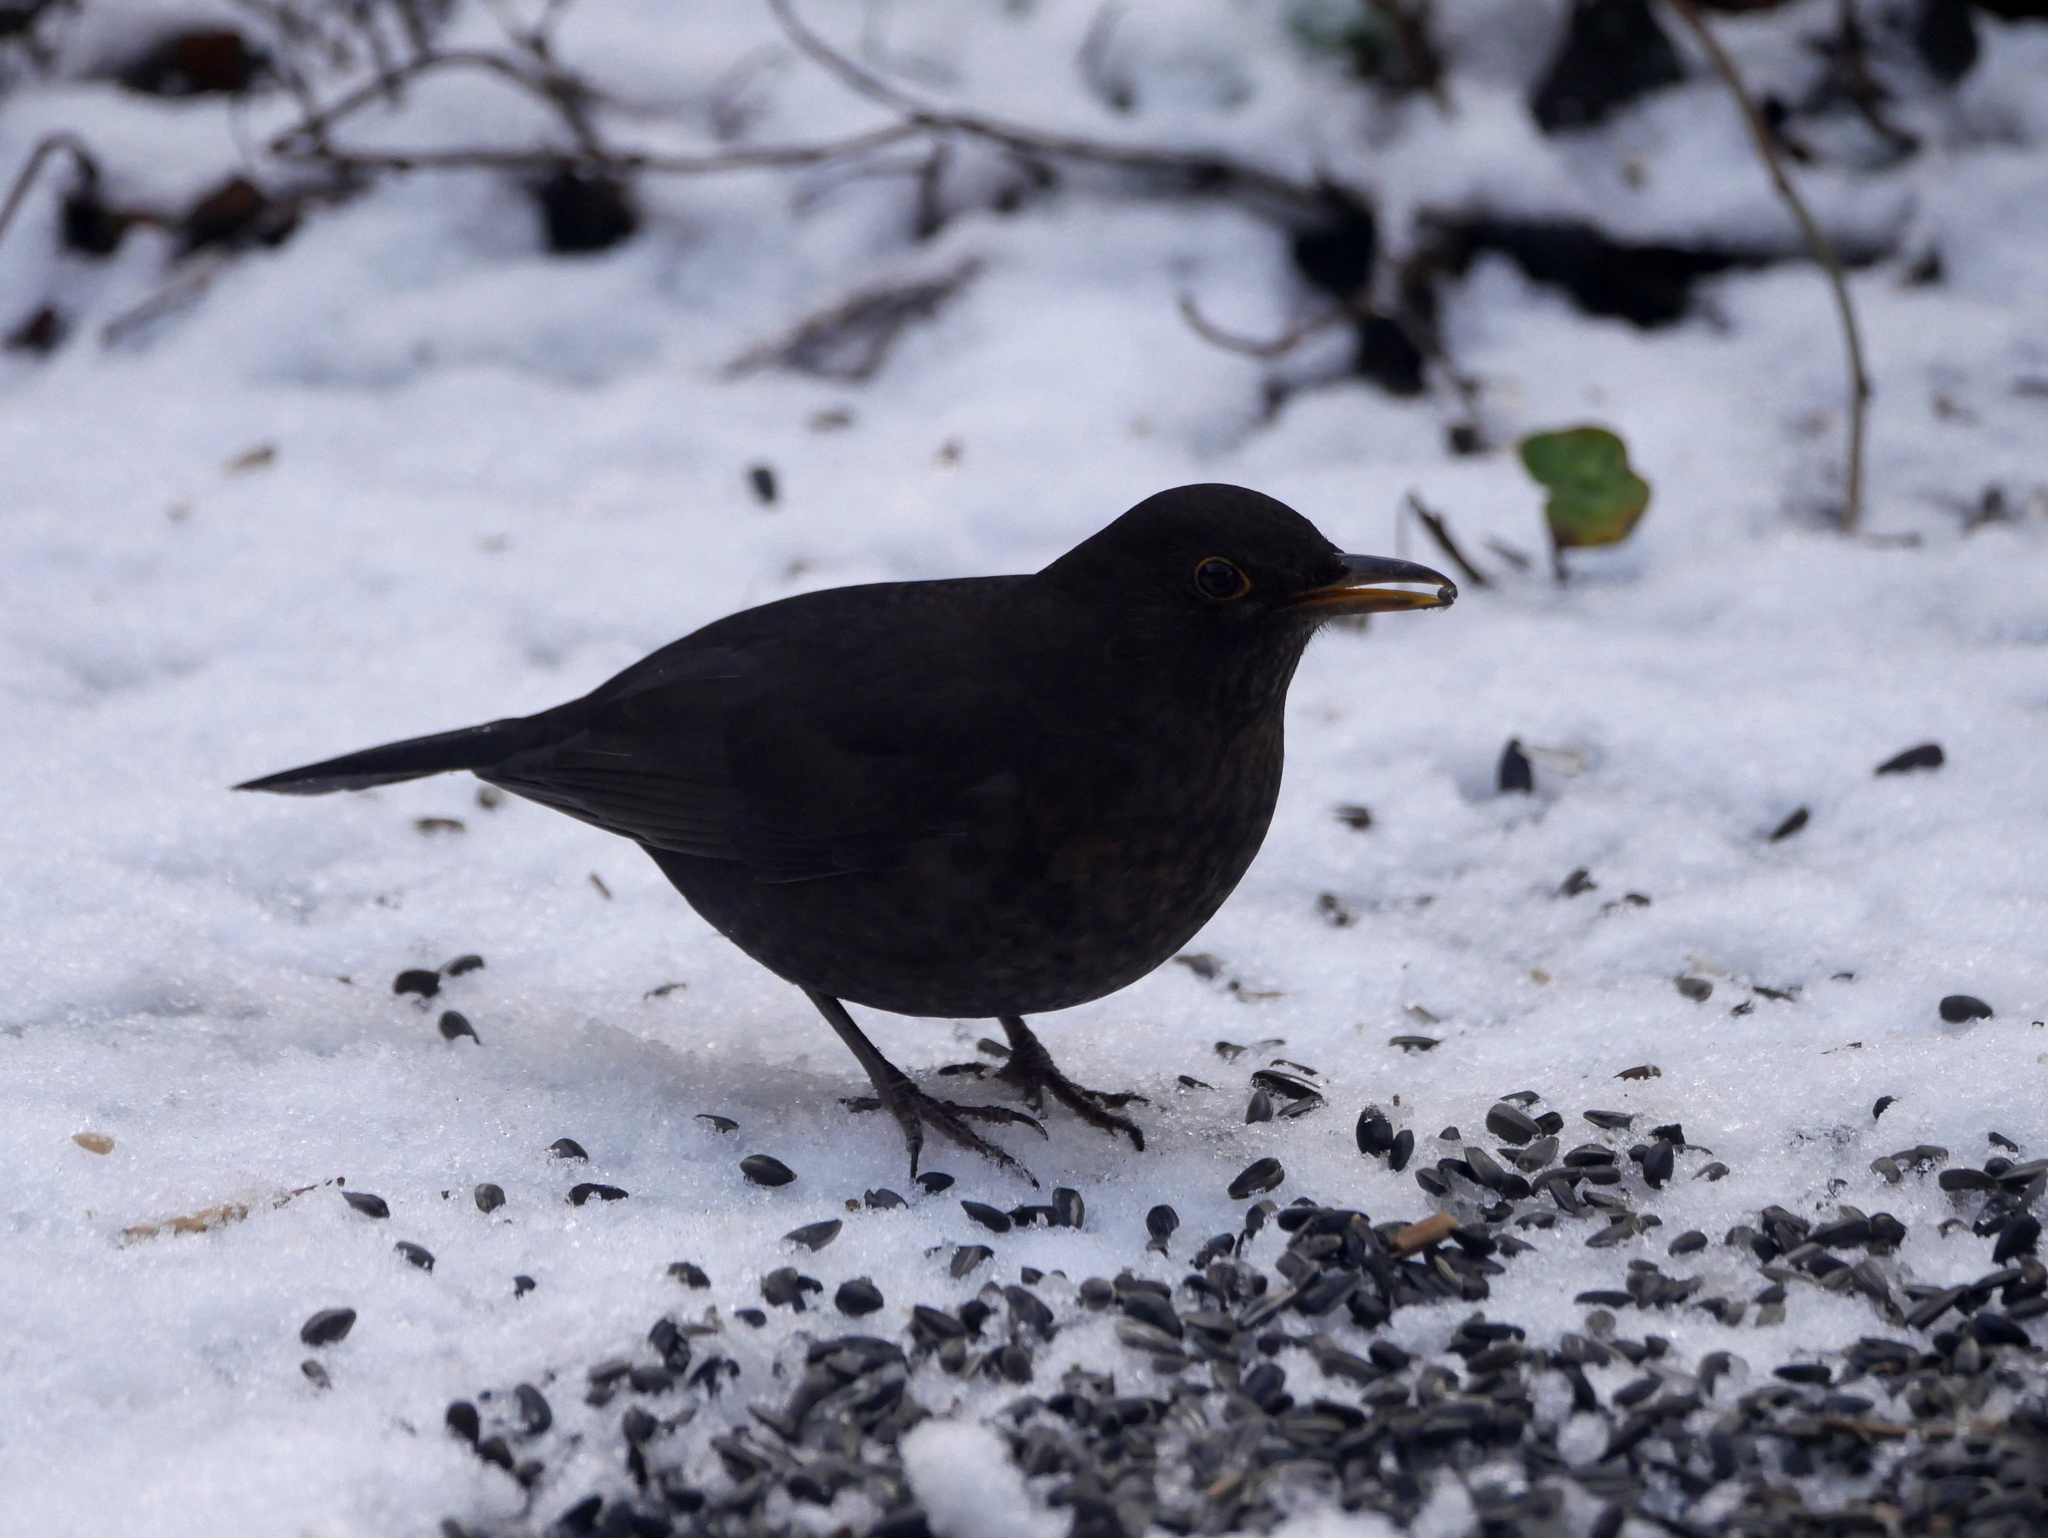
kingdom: Animalia
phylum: Chordata
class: Aves
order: Passeriformes
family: Turdidae
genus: Turdus
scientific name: Turdus merula
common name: Common blackbird
